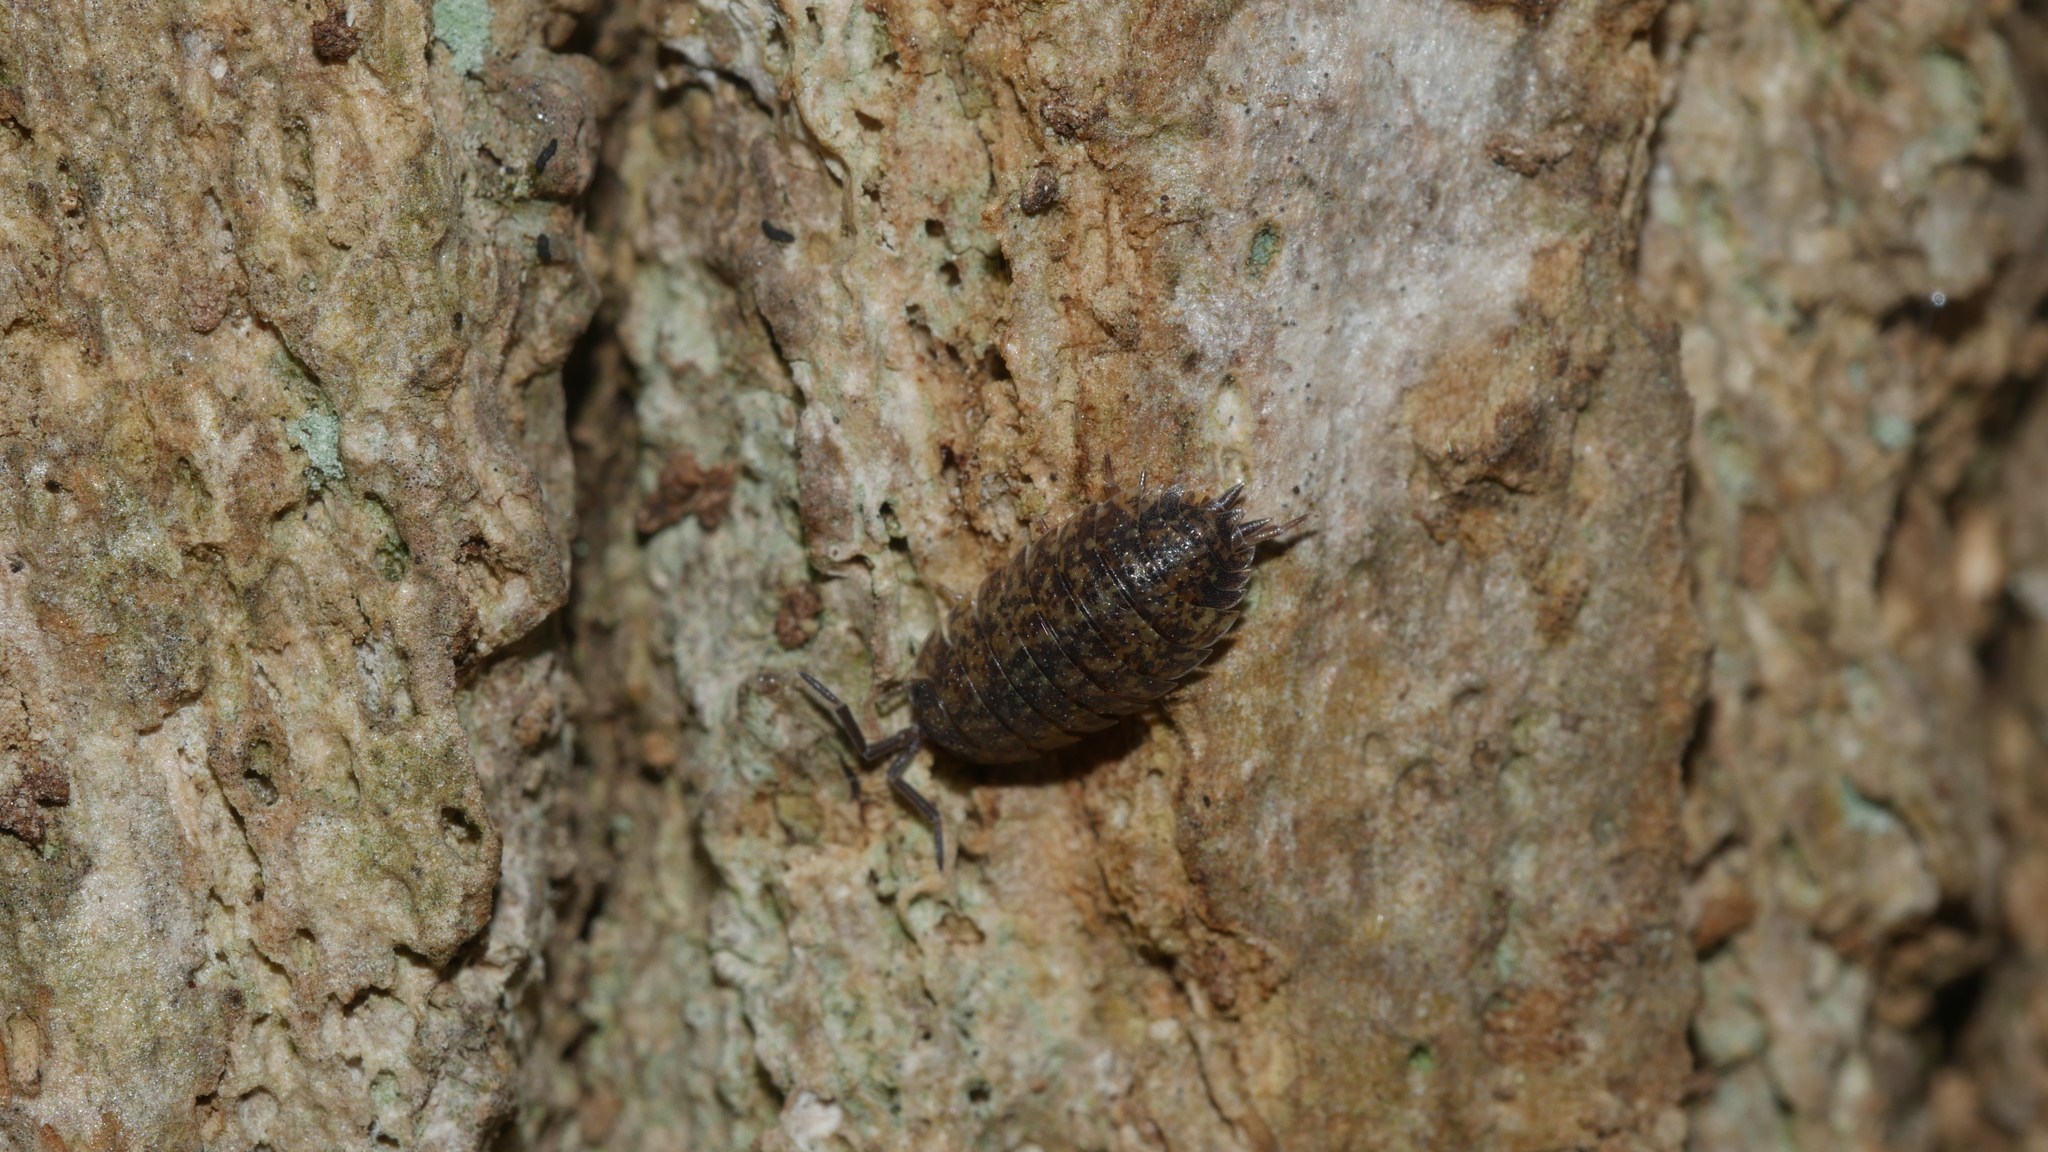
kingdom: Animalia
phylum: Arthropoda
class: Malacostraca
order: Isopoda
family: Porcellionidae
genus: Porcellio
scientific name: Porcellio scaber
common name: Common rough woodlouse
